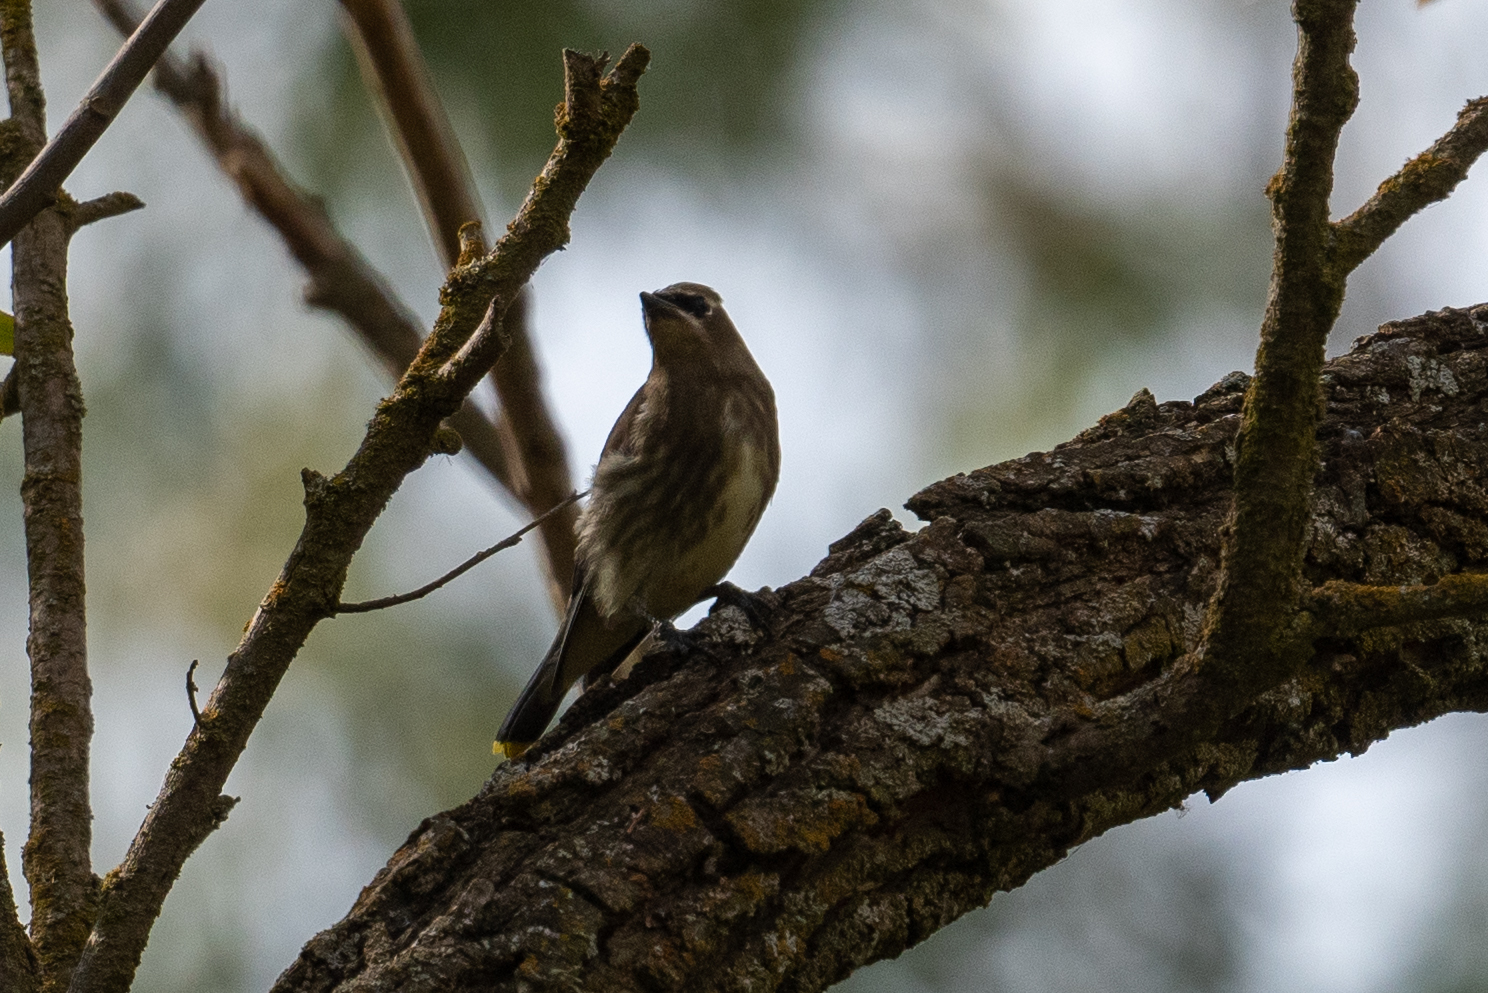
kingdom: Animalia
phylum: Chordata
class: Aves
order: Passeriformes
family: Bombycillidae
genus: Bombycilla
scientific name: Bombycilla cedrorum
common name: Cedar waxwing
